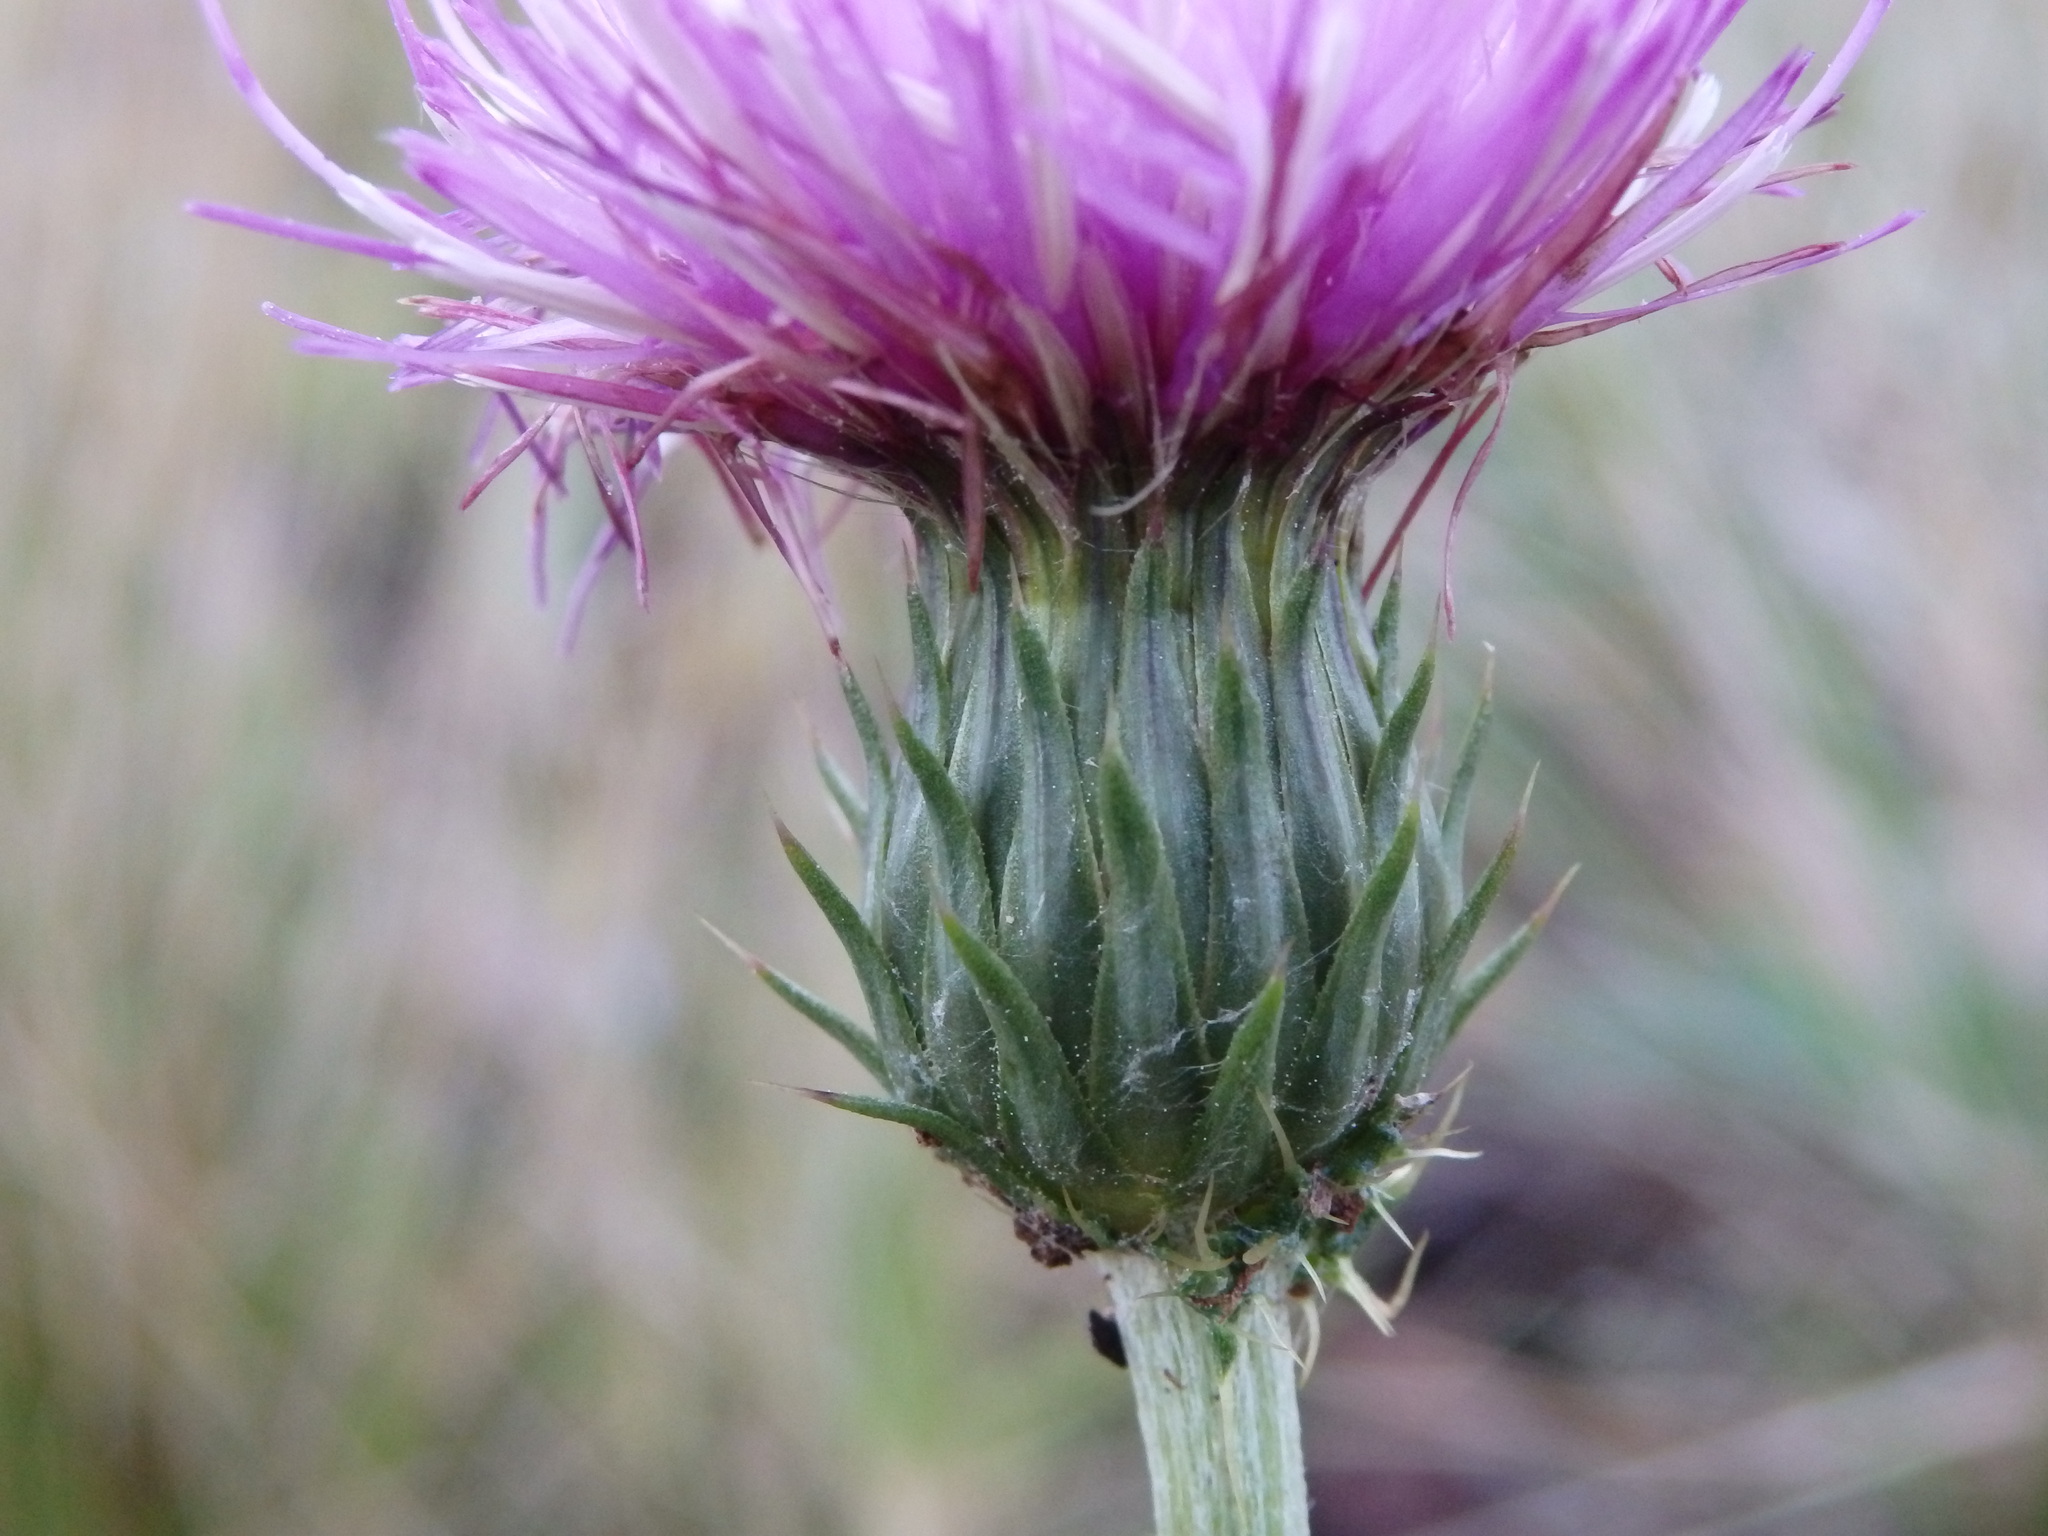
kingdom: Plantae
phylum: Tracheophyta
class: Magnoliopsida
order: Asterales
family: Asteraceae
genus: Cirsium
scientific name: Cirsium filipendulum
